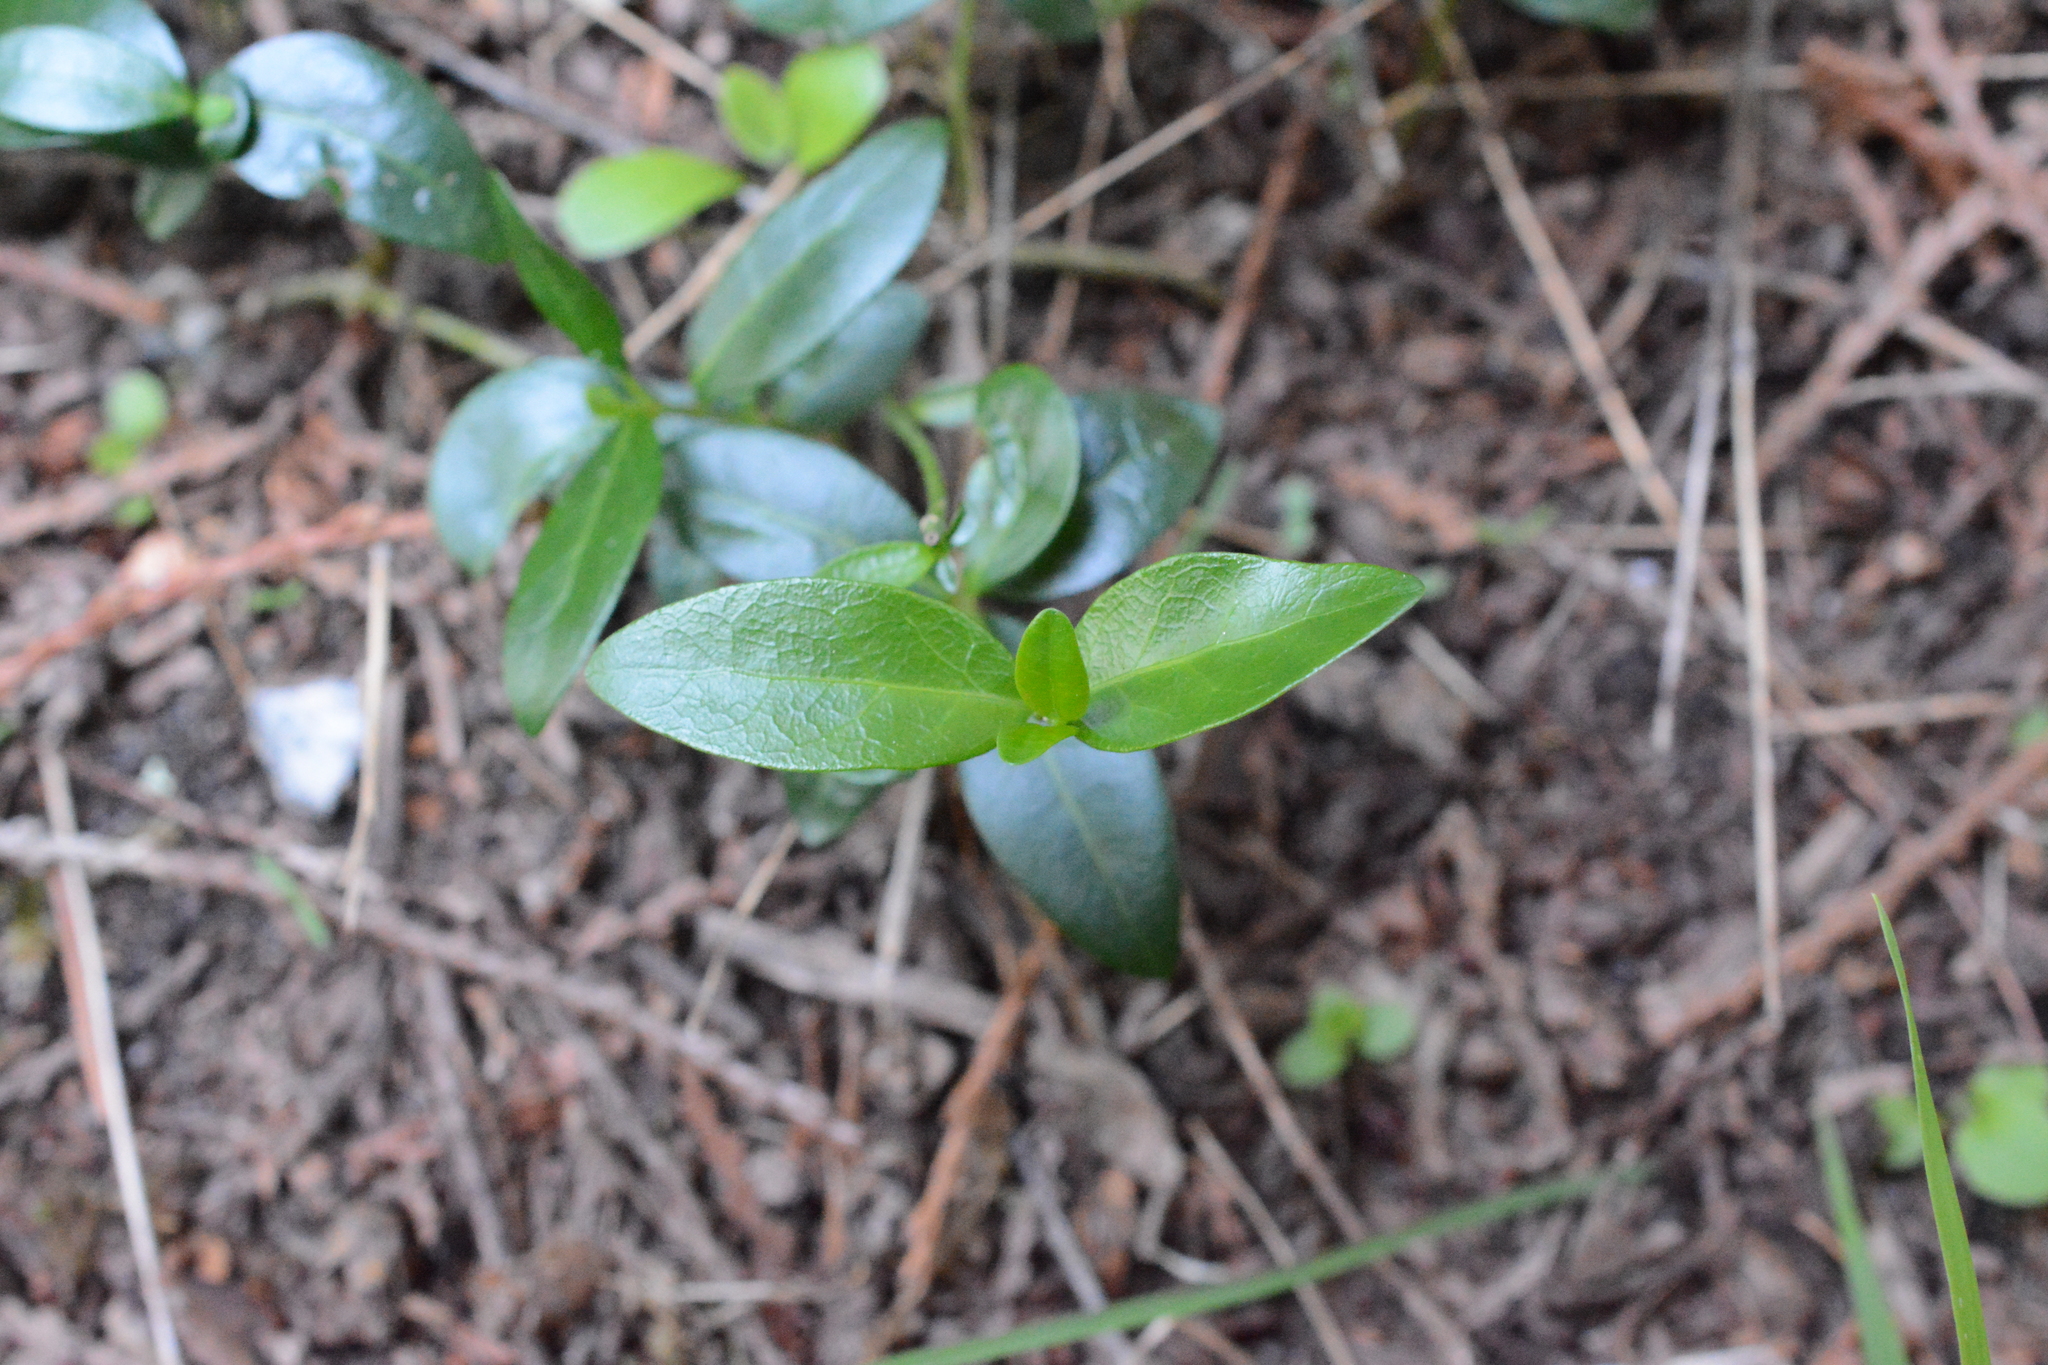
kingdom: Plantae
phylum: Tracheophyta
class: Magnoliopsida
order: Gentianales
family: Apocynaceae
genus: Vinca
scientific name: Vinca minor
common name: Lesser periwinkle
